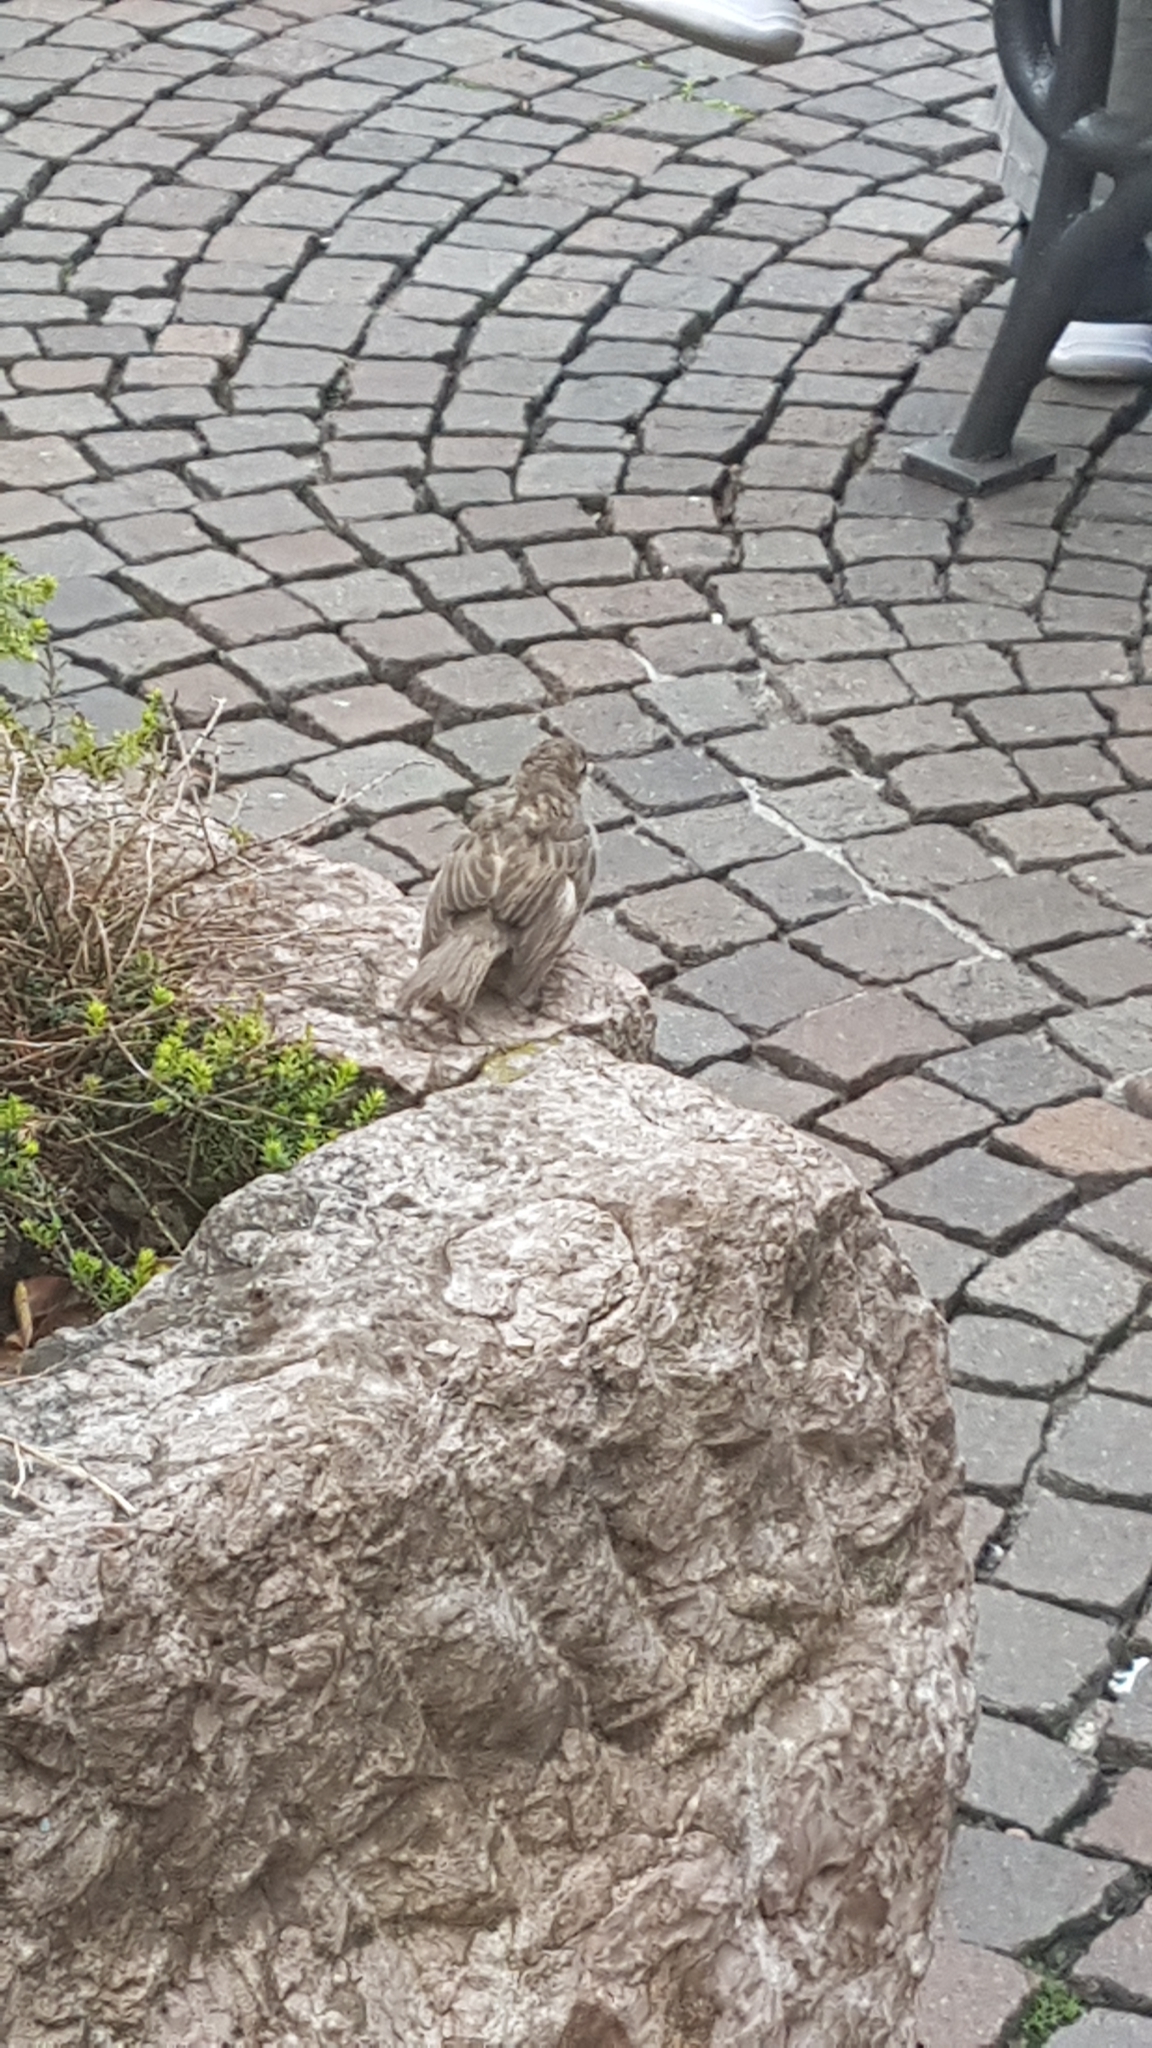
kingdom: Animalia
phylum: Chordata
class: Aves
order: Passeriformes
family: Passeridae
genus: Passer
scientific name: Passer italiae
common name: Italian sparrow
